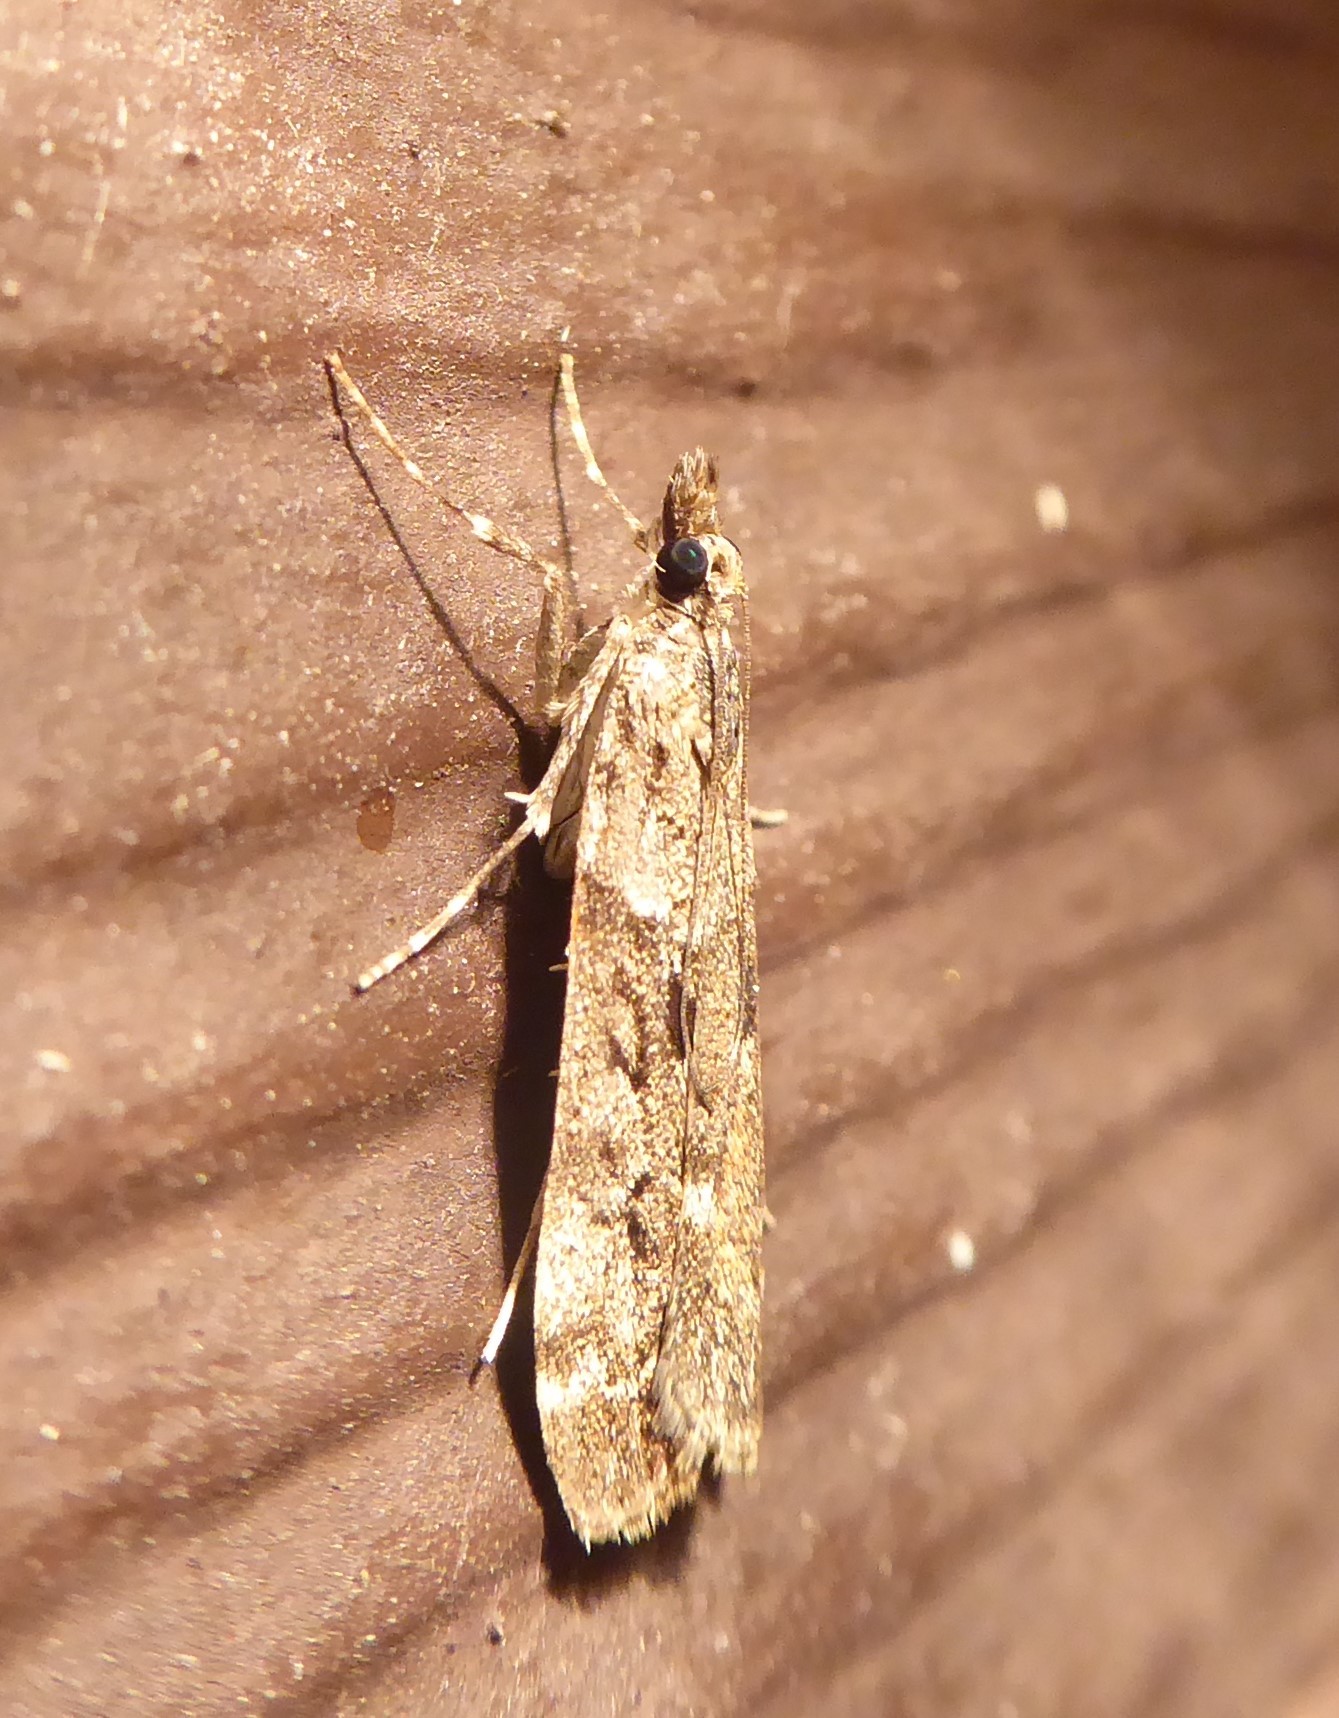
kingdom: Animalia
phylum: Arthropoda
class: Insecta
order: Lepidoptera
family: Crambidae
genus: Eudonia
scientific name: Eudonia submarginalis
